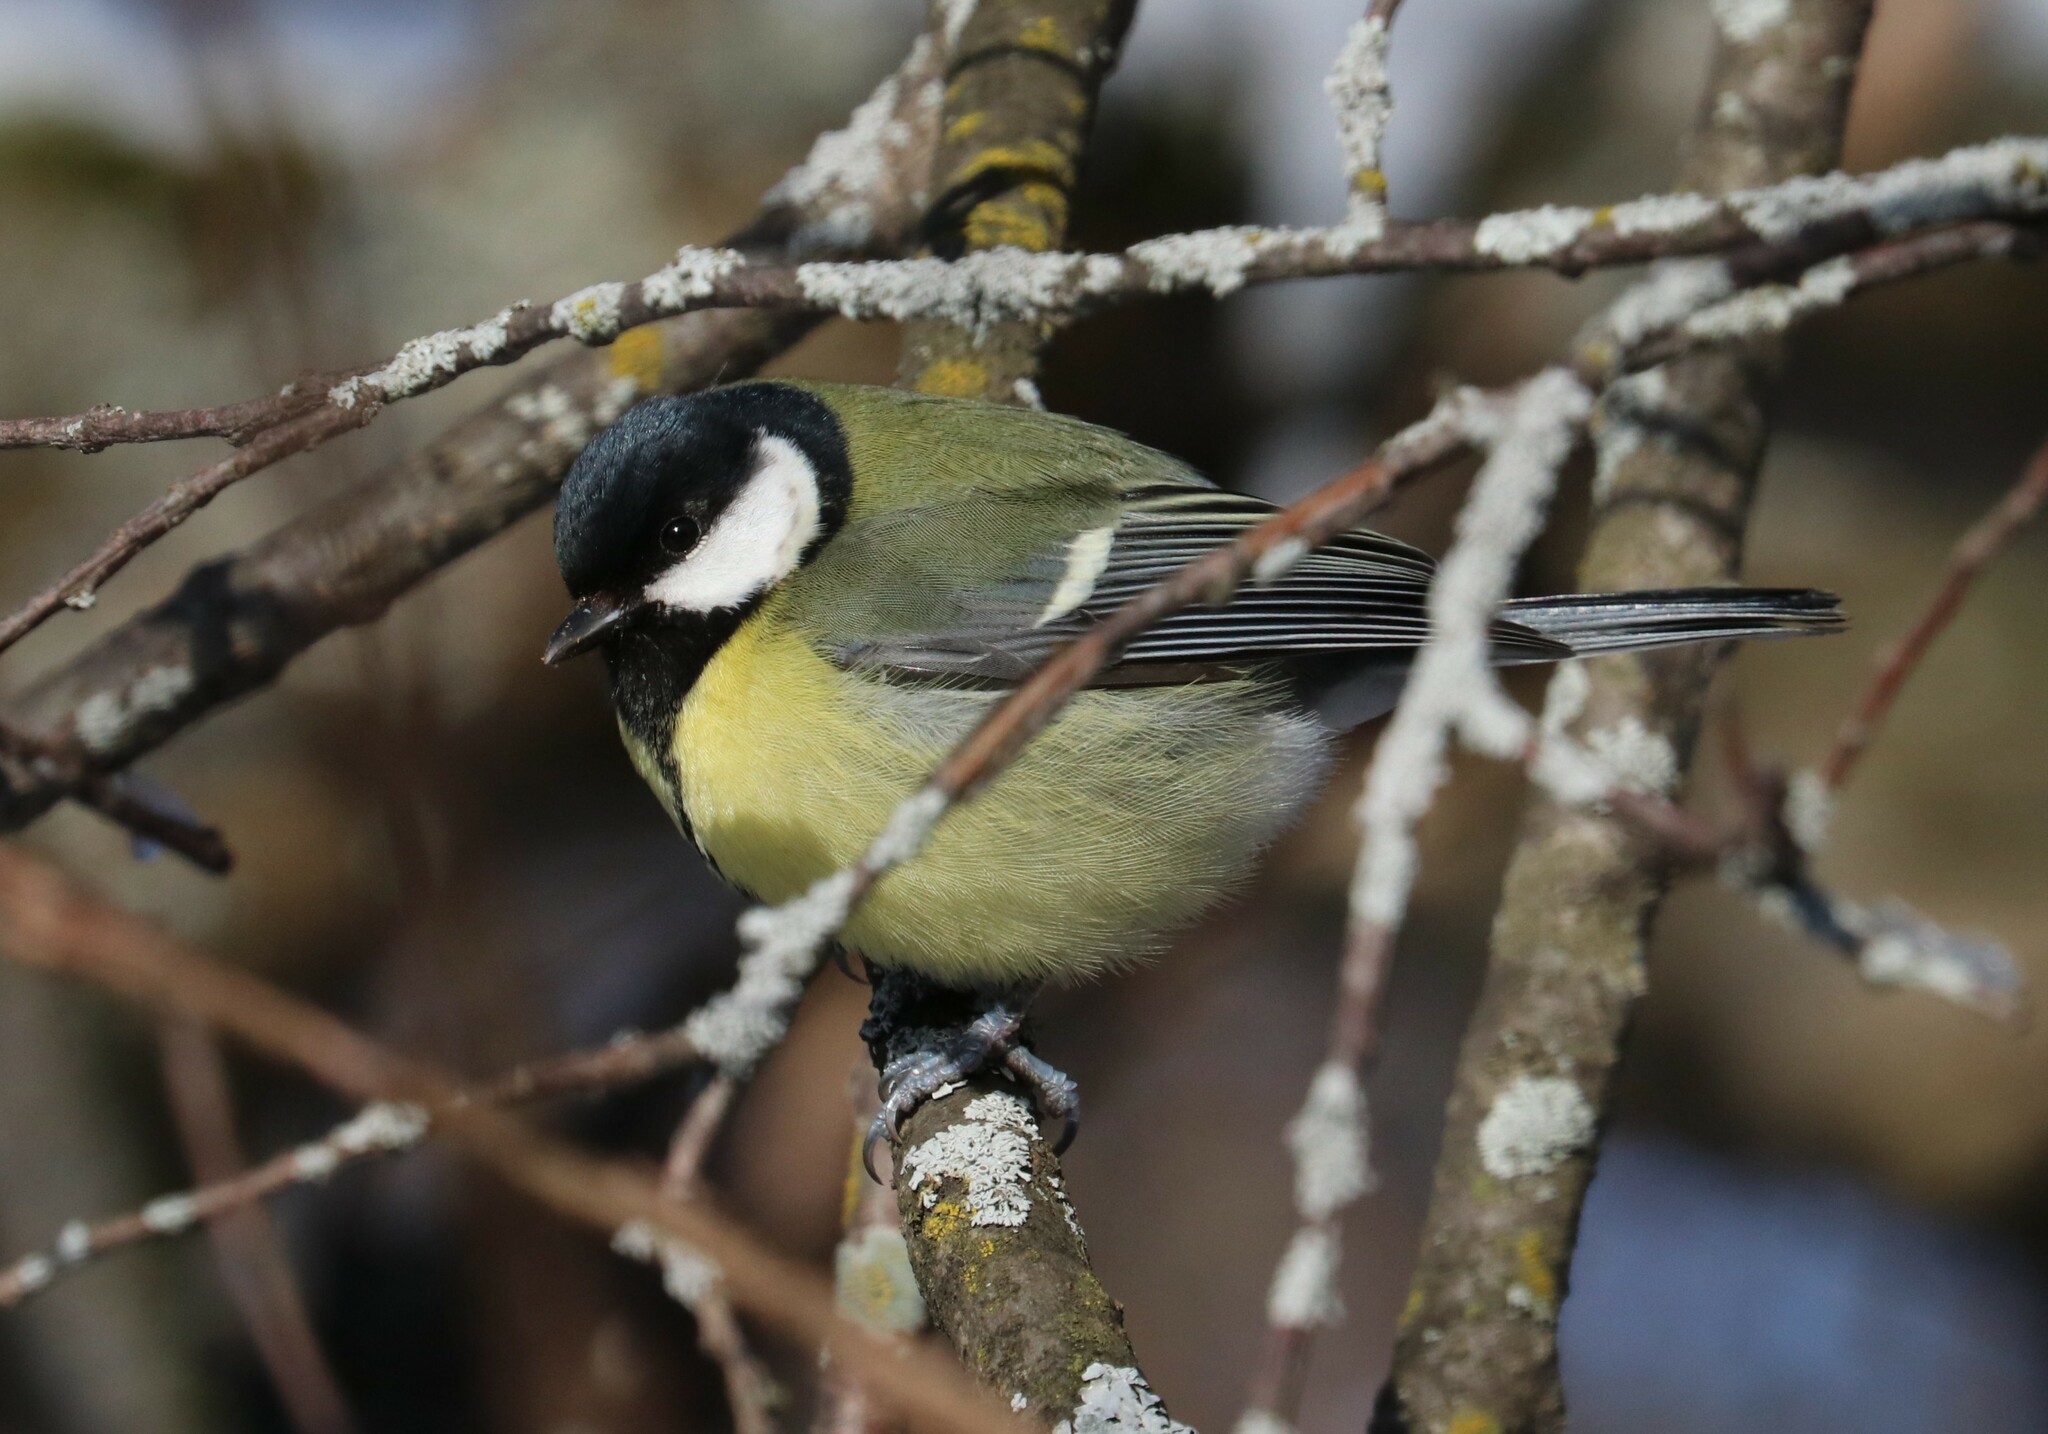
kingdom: Animalia
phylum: Chordata
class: Aves
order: Passeriformes
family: Paridae
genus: Parus
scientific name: Parus major
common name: Great tit
